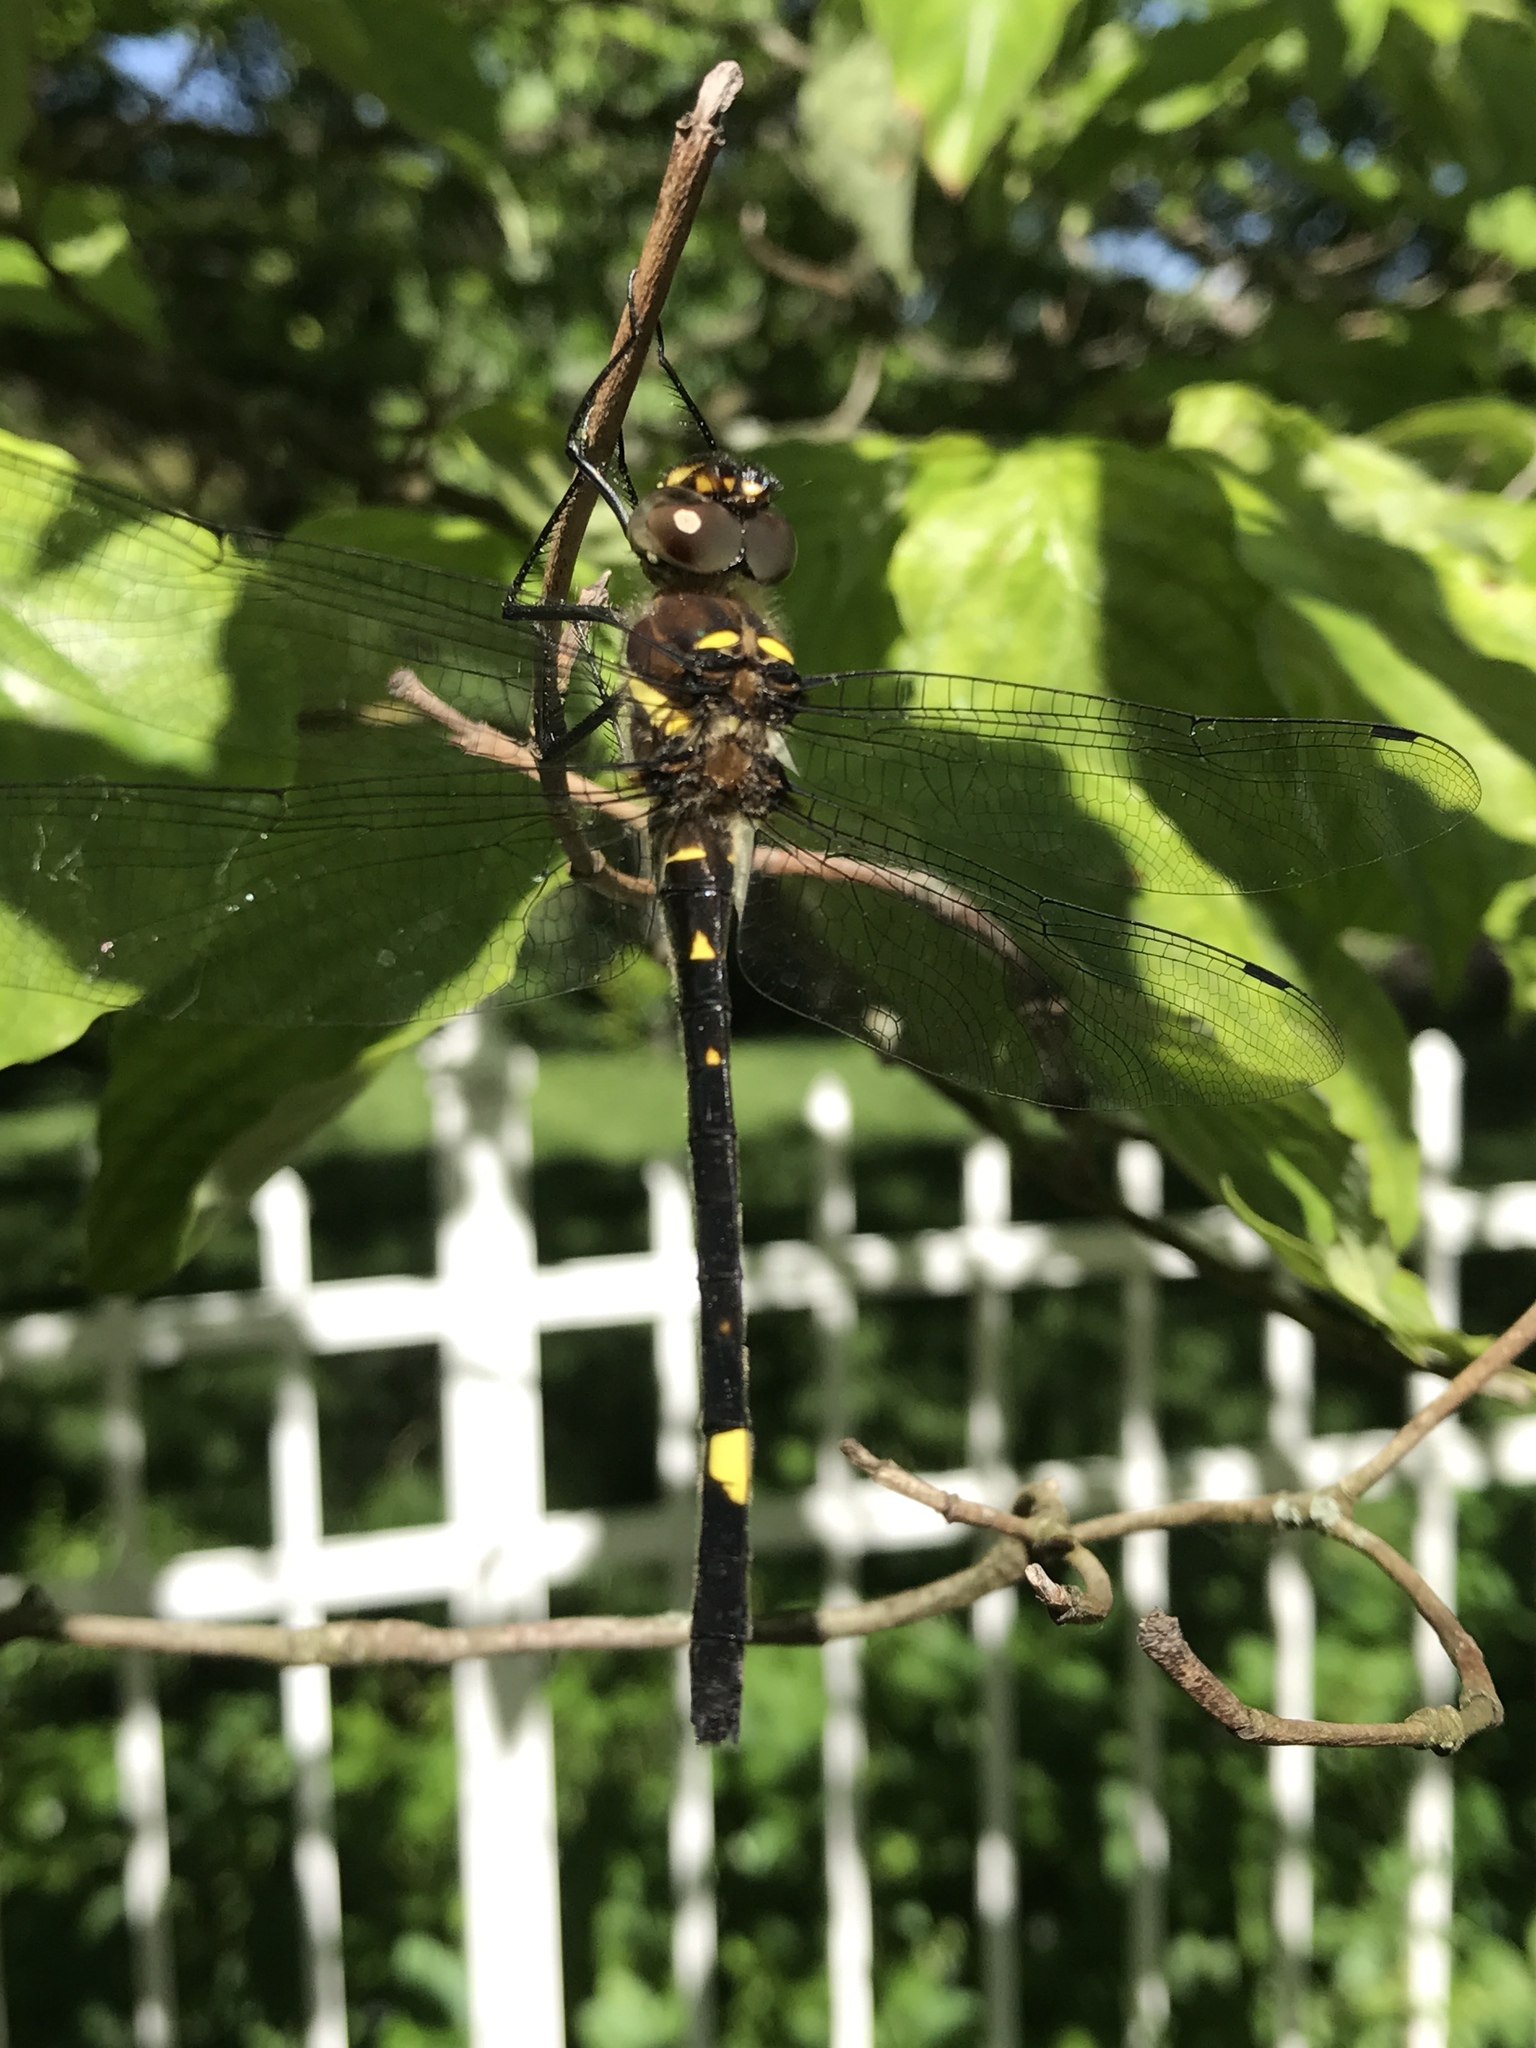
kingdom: Animalia
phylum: Arthropoda
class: Insecta
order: Odonata
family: Macromiidae
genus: Macromia
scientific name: Macromia illinoiensis
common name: Swift river cruiser
